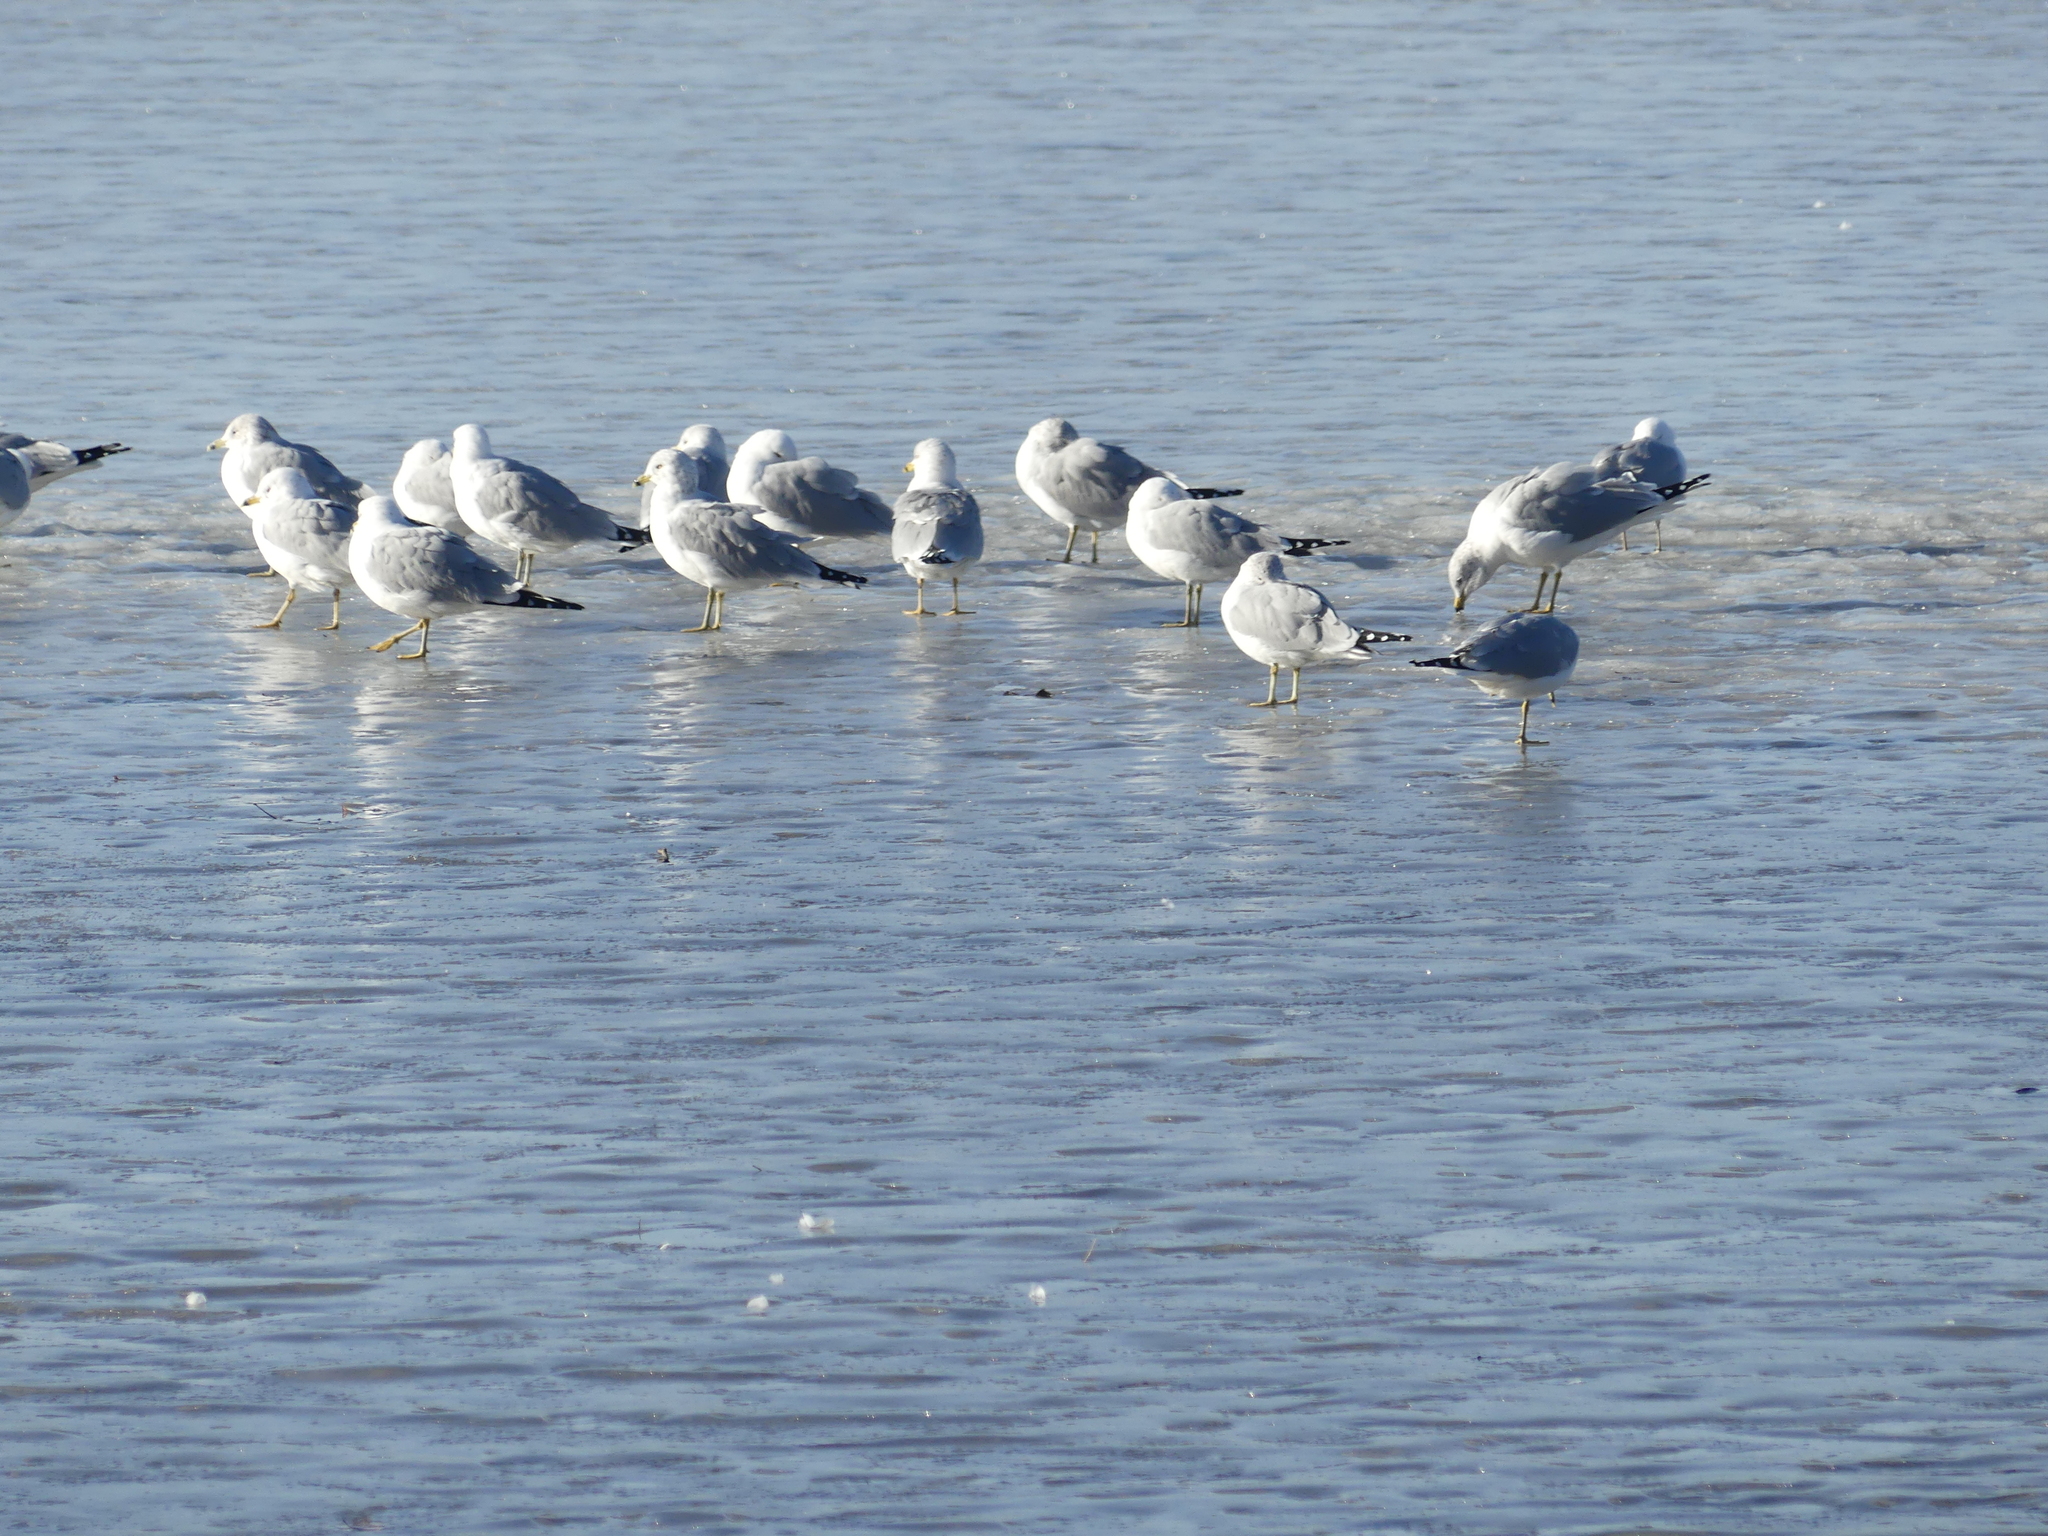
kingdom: Animalia
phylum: Chordata
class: Aves
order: Charadriiformes
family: Laridae
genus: Larus
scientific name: Larus delawarensis
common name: Ring-billed gull
